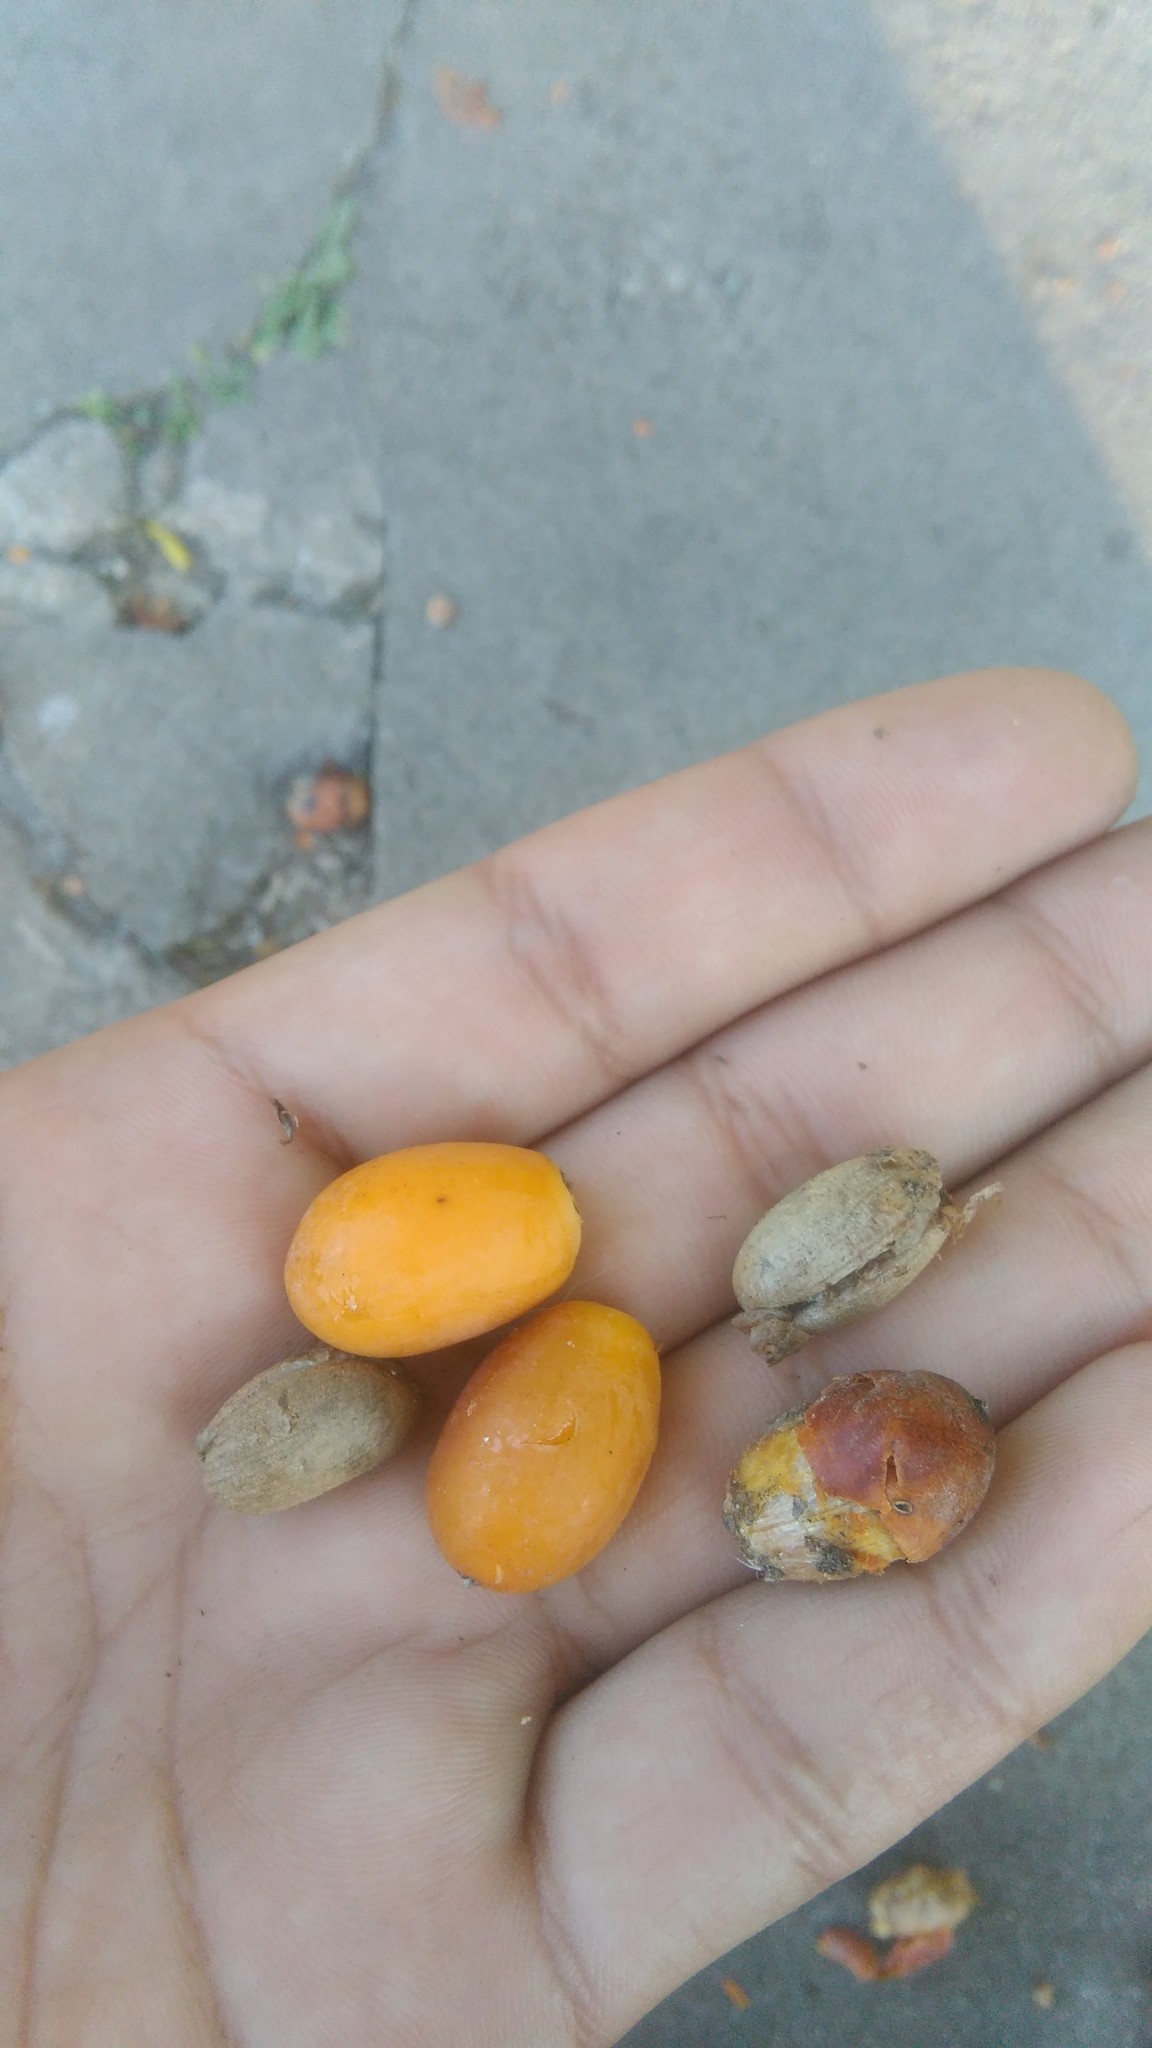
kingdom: Plantae
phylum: Tracheophyta
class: Liliopsida
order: Arecales
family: Arecaceae
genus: Phoenix
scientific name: Phoenix canariensis
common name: Canary island date palm
